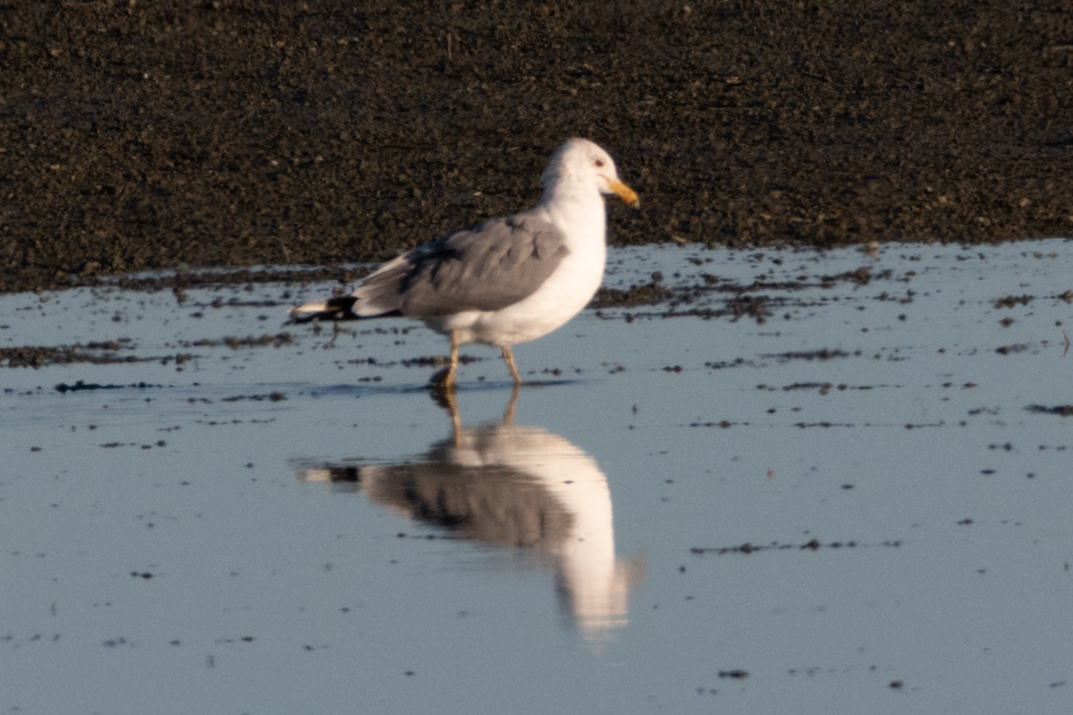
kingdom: Animalia
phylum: Chordata
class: Aves
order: Charadriiformes
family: Laridae
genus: Larus
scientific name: Larus californicus
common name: California gull
